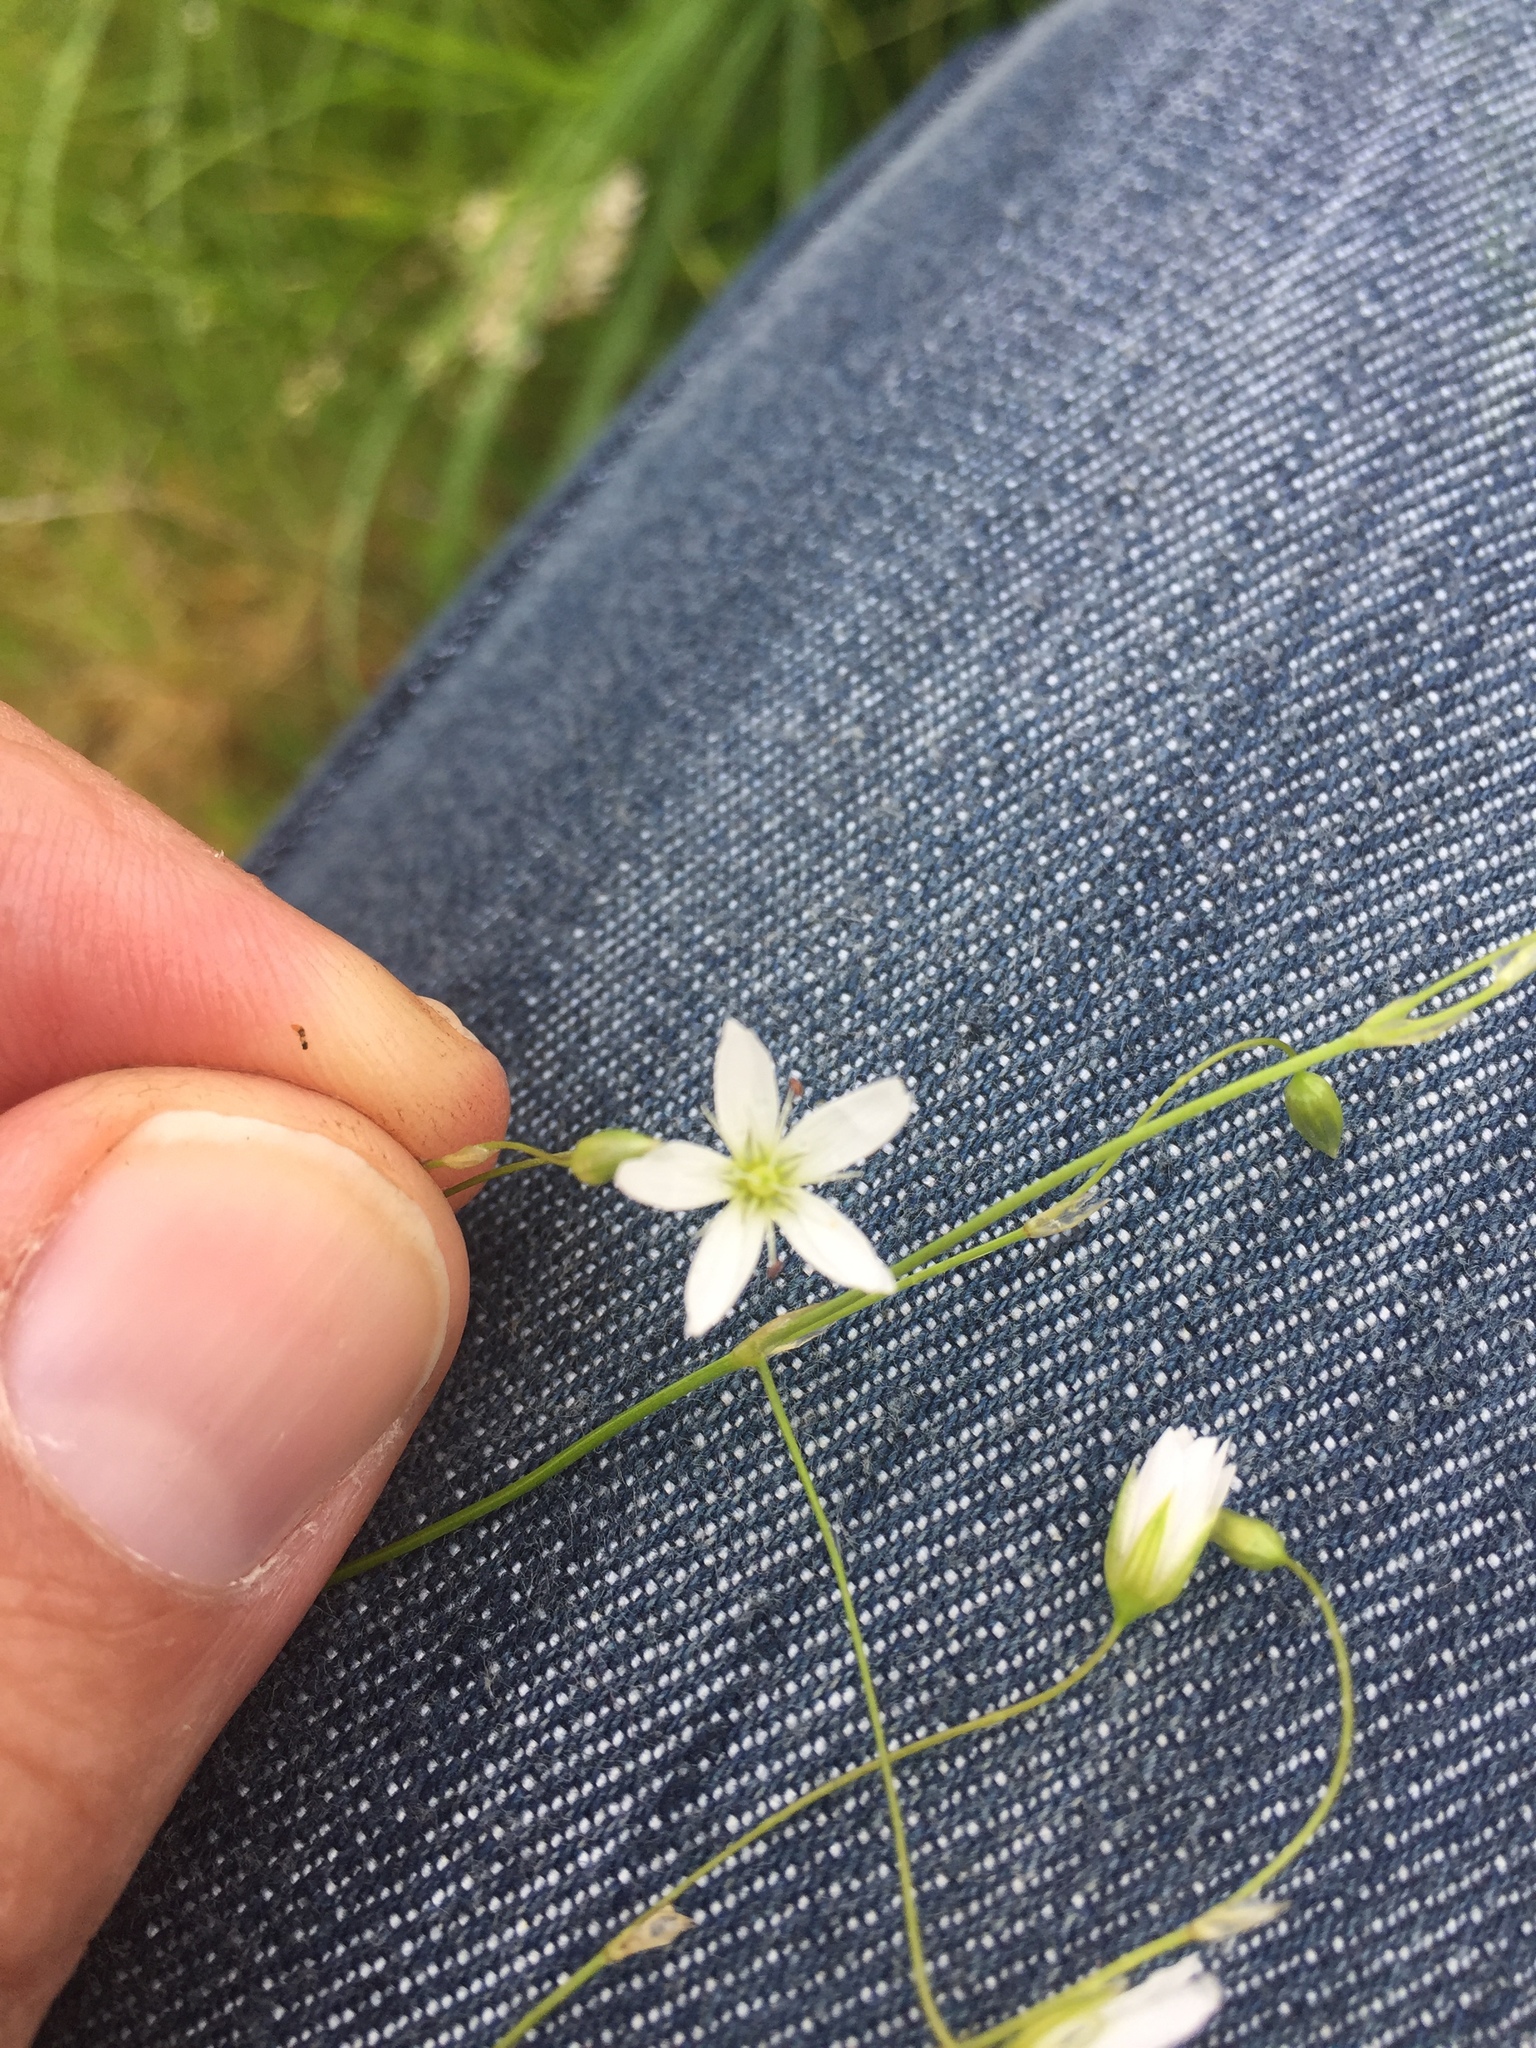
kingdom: Plantae
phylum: Tracheophyta
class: Magnoliopsida
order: Caryophyllales
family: Caryophyllaceae
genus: Stellaria
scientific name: Stellaria graminea
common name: Grass-like starwort
